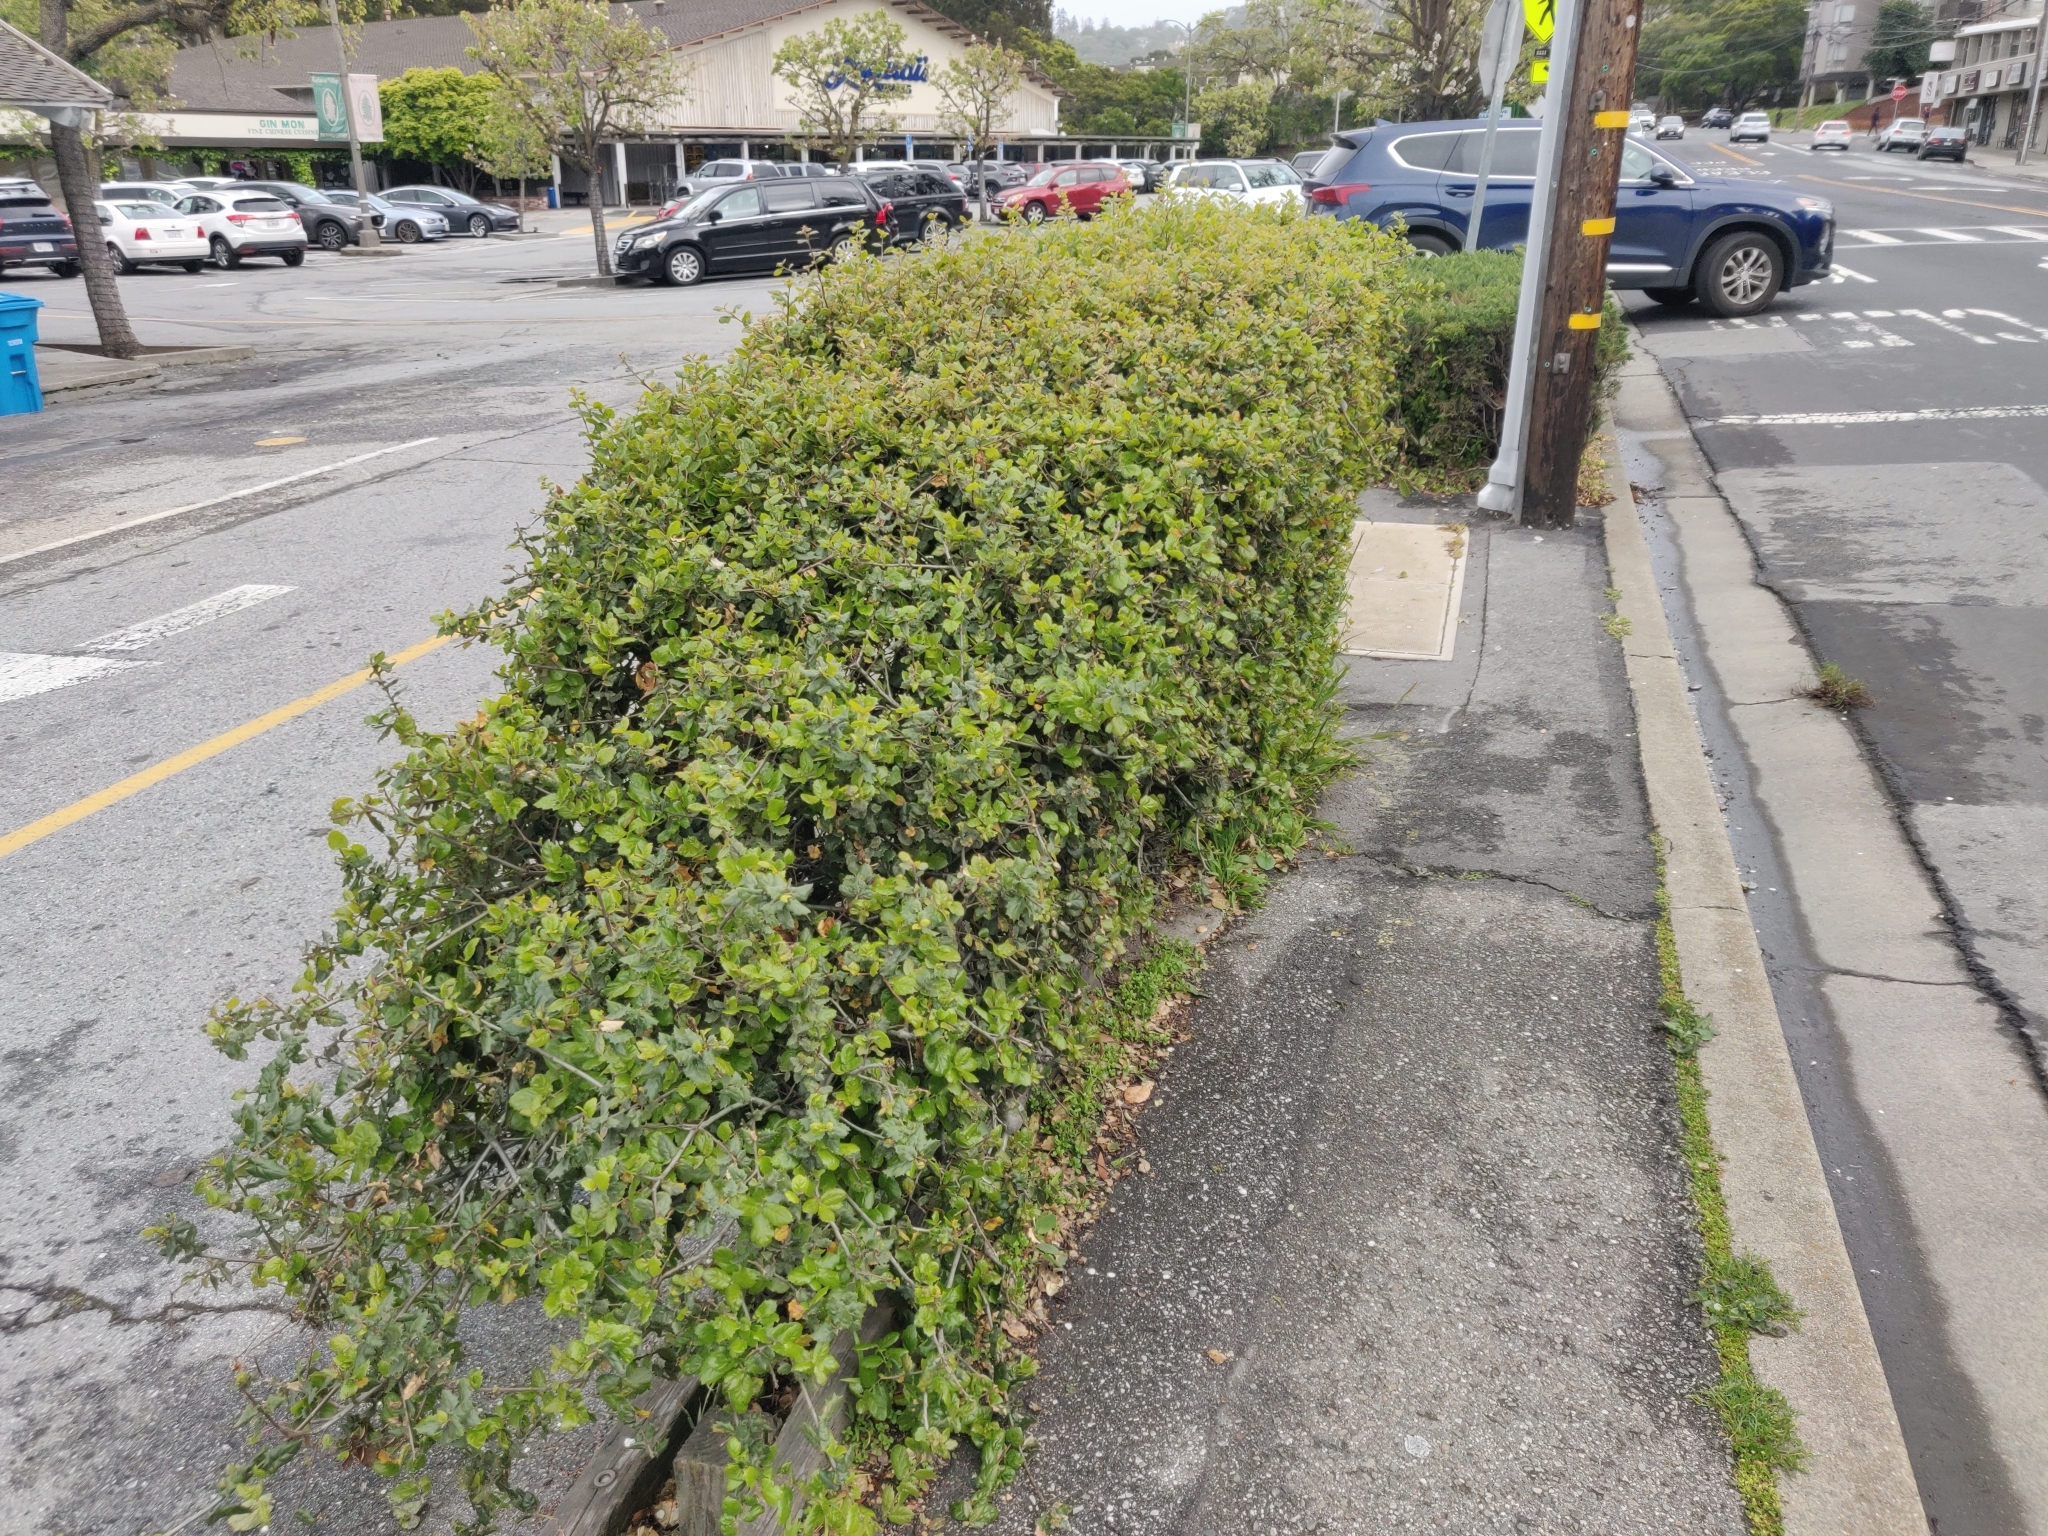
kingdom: Plantae
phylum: Tracheophyta
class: Magnoliopsida
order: Fagales
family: Fagaceae
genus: Quercus
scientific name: Quercus agrifolia
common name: California live oak
